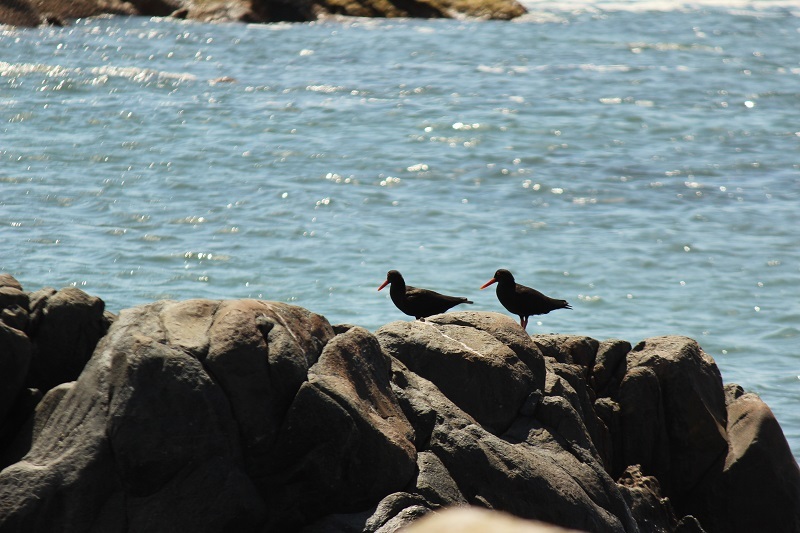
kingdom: Animalia
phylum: Chordata
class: Aves
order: Charadriiformes
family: Haematopodidae
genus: Haematopus
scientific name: Haematopus moquini
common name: African oystercatcher
